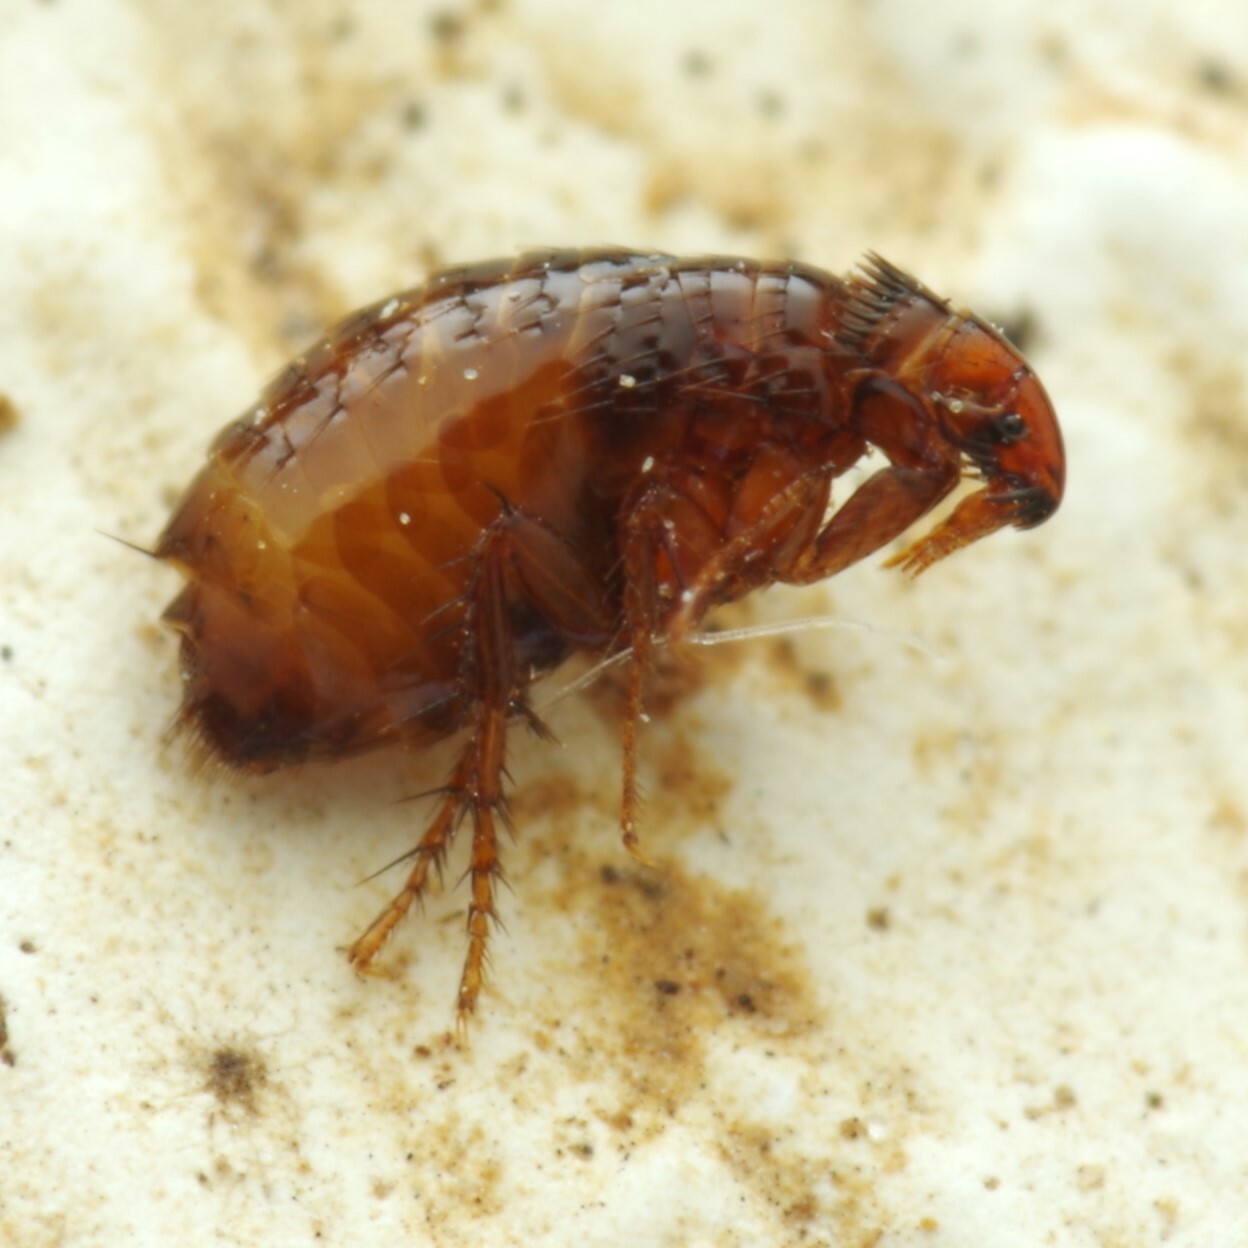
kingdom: Animalia
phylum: Arthropoda
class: Insecta
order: Siphonaptera
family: Pulicidae
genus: Ctenocephalides
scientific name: Ctenocephalides felis
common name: Cat flea
